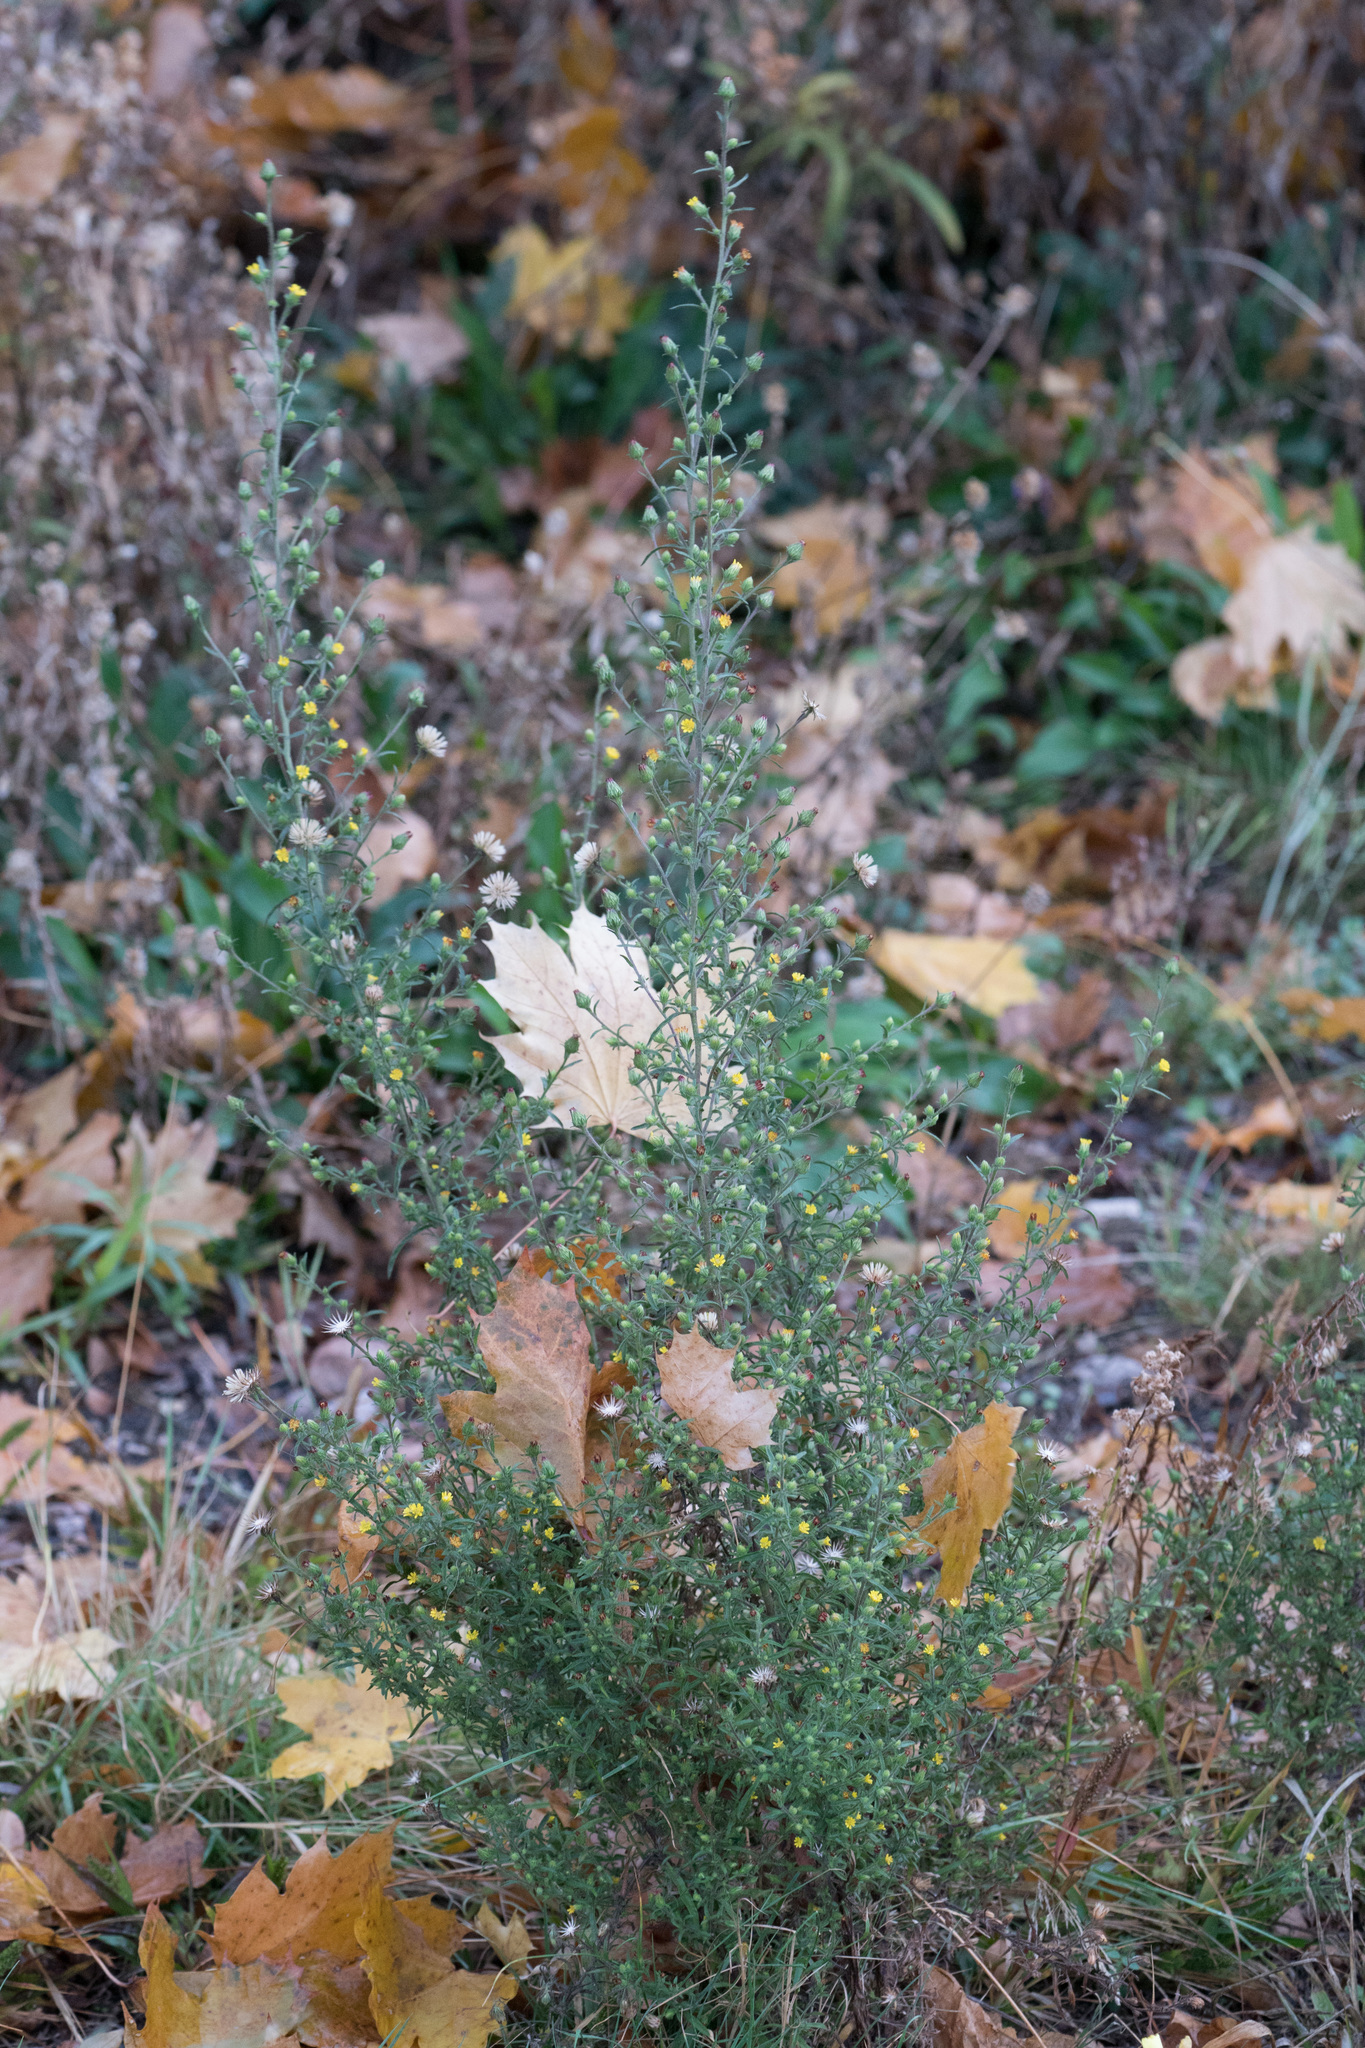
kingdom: Plantae
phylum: Tracheophyta
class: Magnoliopsida
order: Asterales
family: Asteraceae
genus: Dittrichia
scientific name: Dittrichia graveolens
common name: Stinking fleabane
